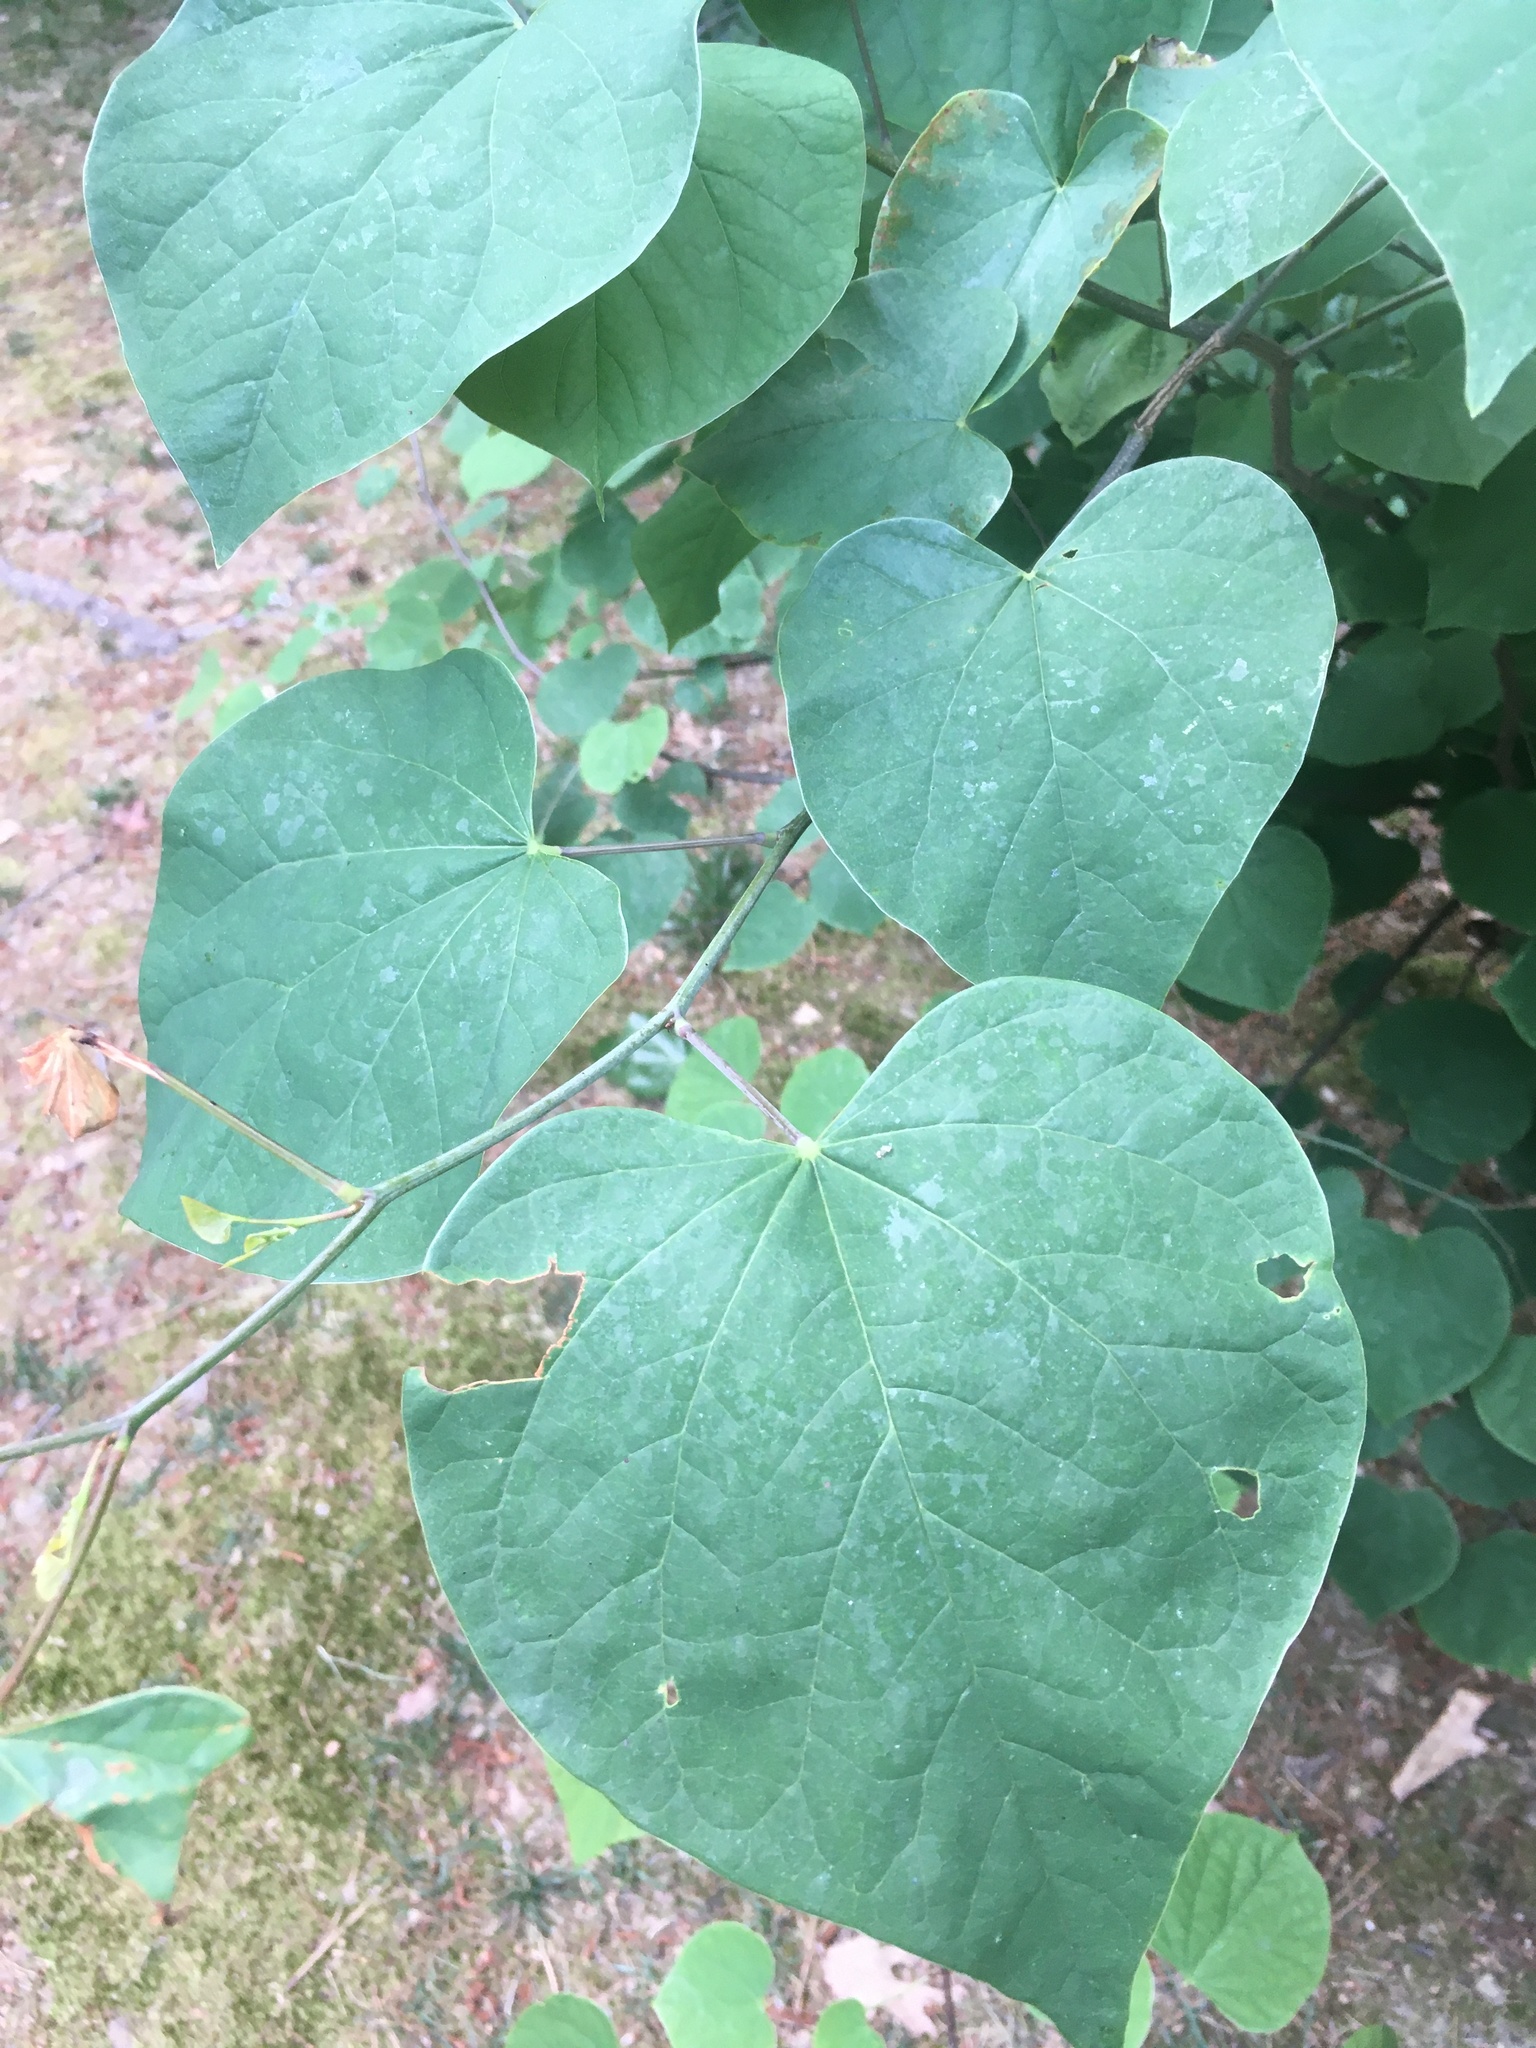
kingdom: Plantae
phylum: Tracheophyta
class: Magnoliopsida
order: Fabales
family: Fabaceae
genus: Cercis
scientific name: Cercis canadensis
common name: Eastern redbud
